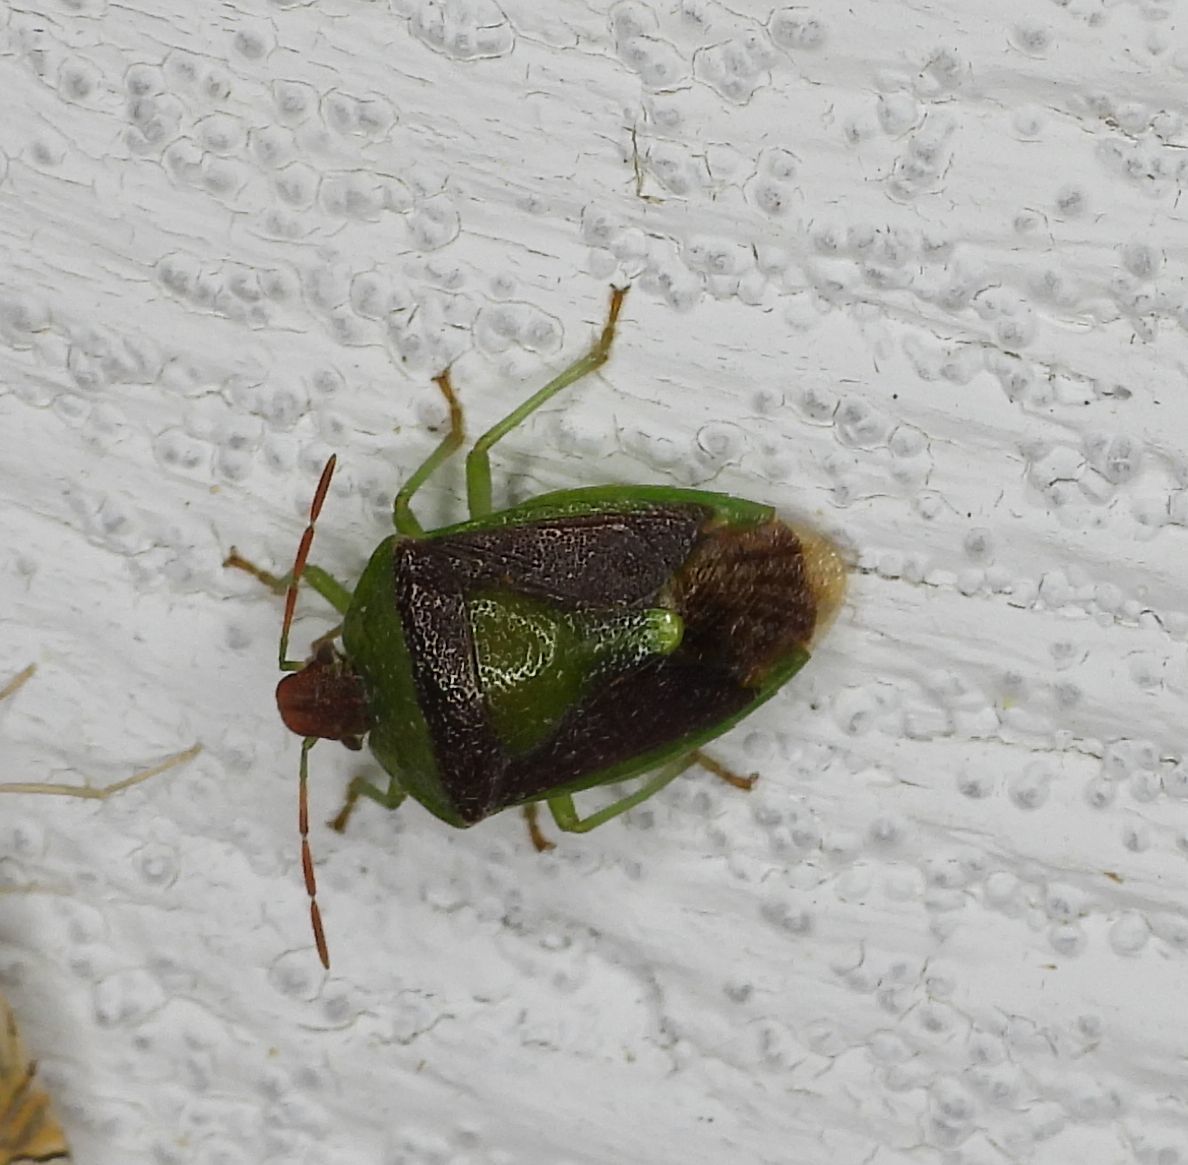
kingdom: Animalia
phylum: Arthropoda
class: Insecta
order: Hemiptera
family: Pentatomidae
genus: Banasa
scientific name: Banasa dimidiata
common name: Green burgundy stink bug
